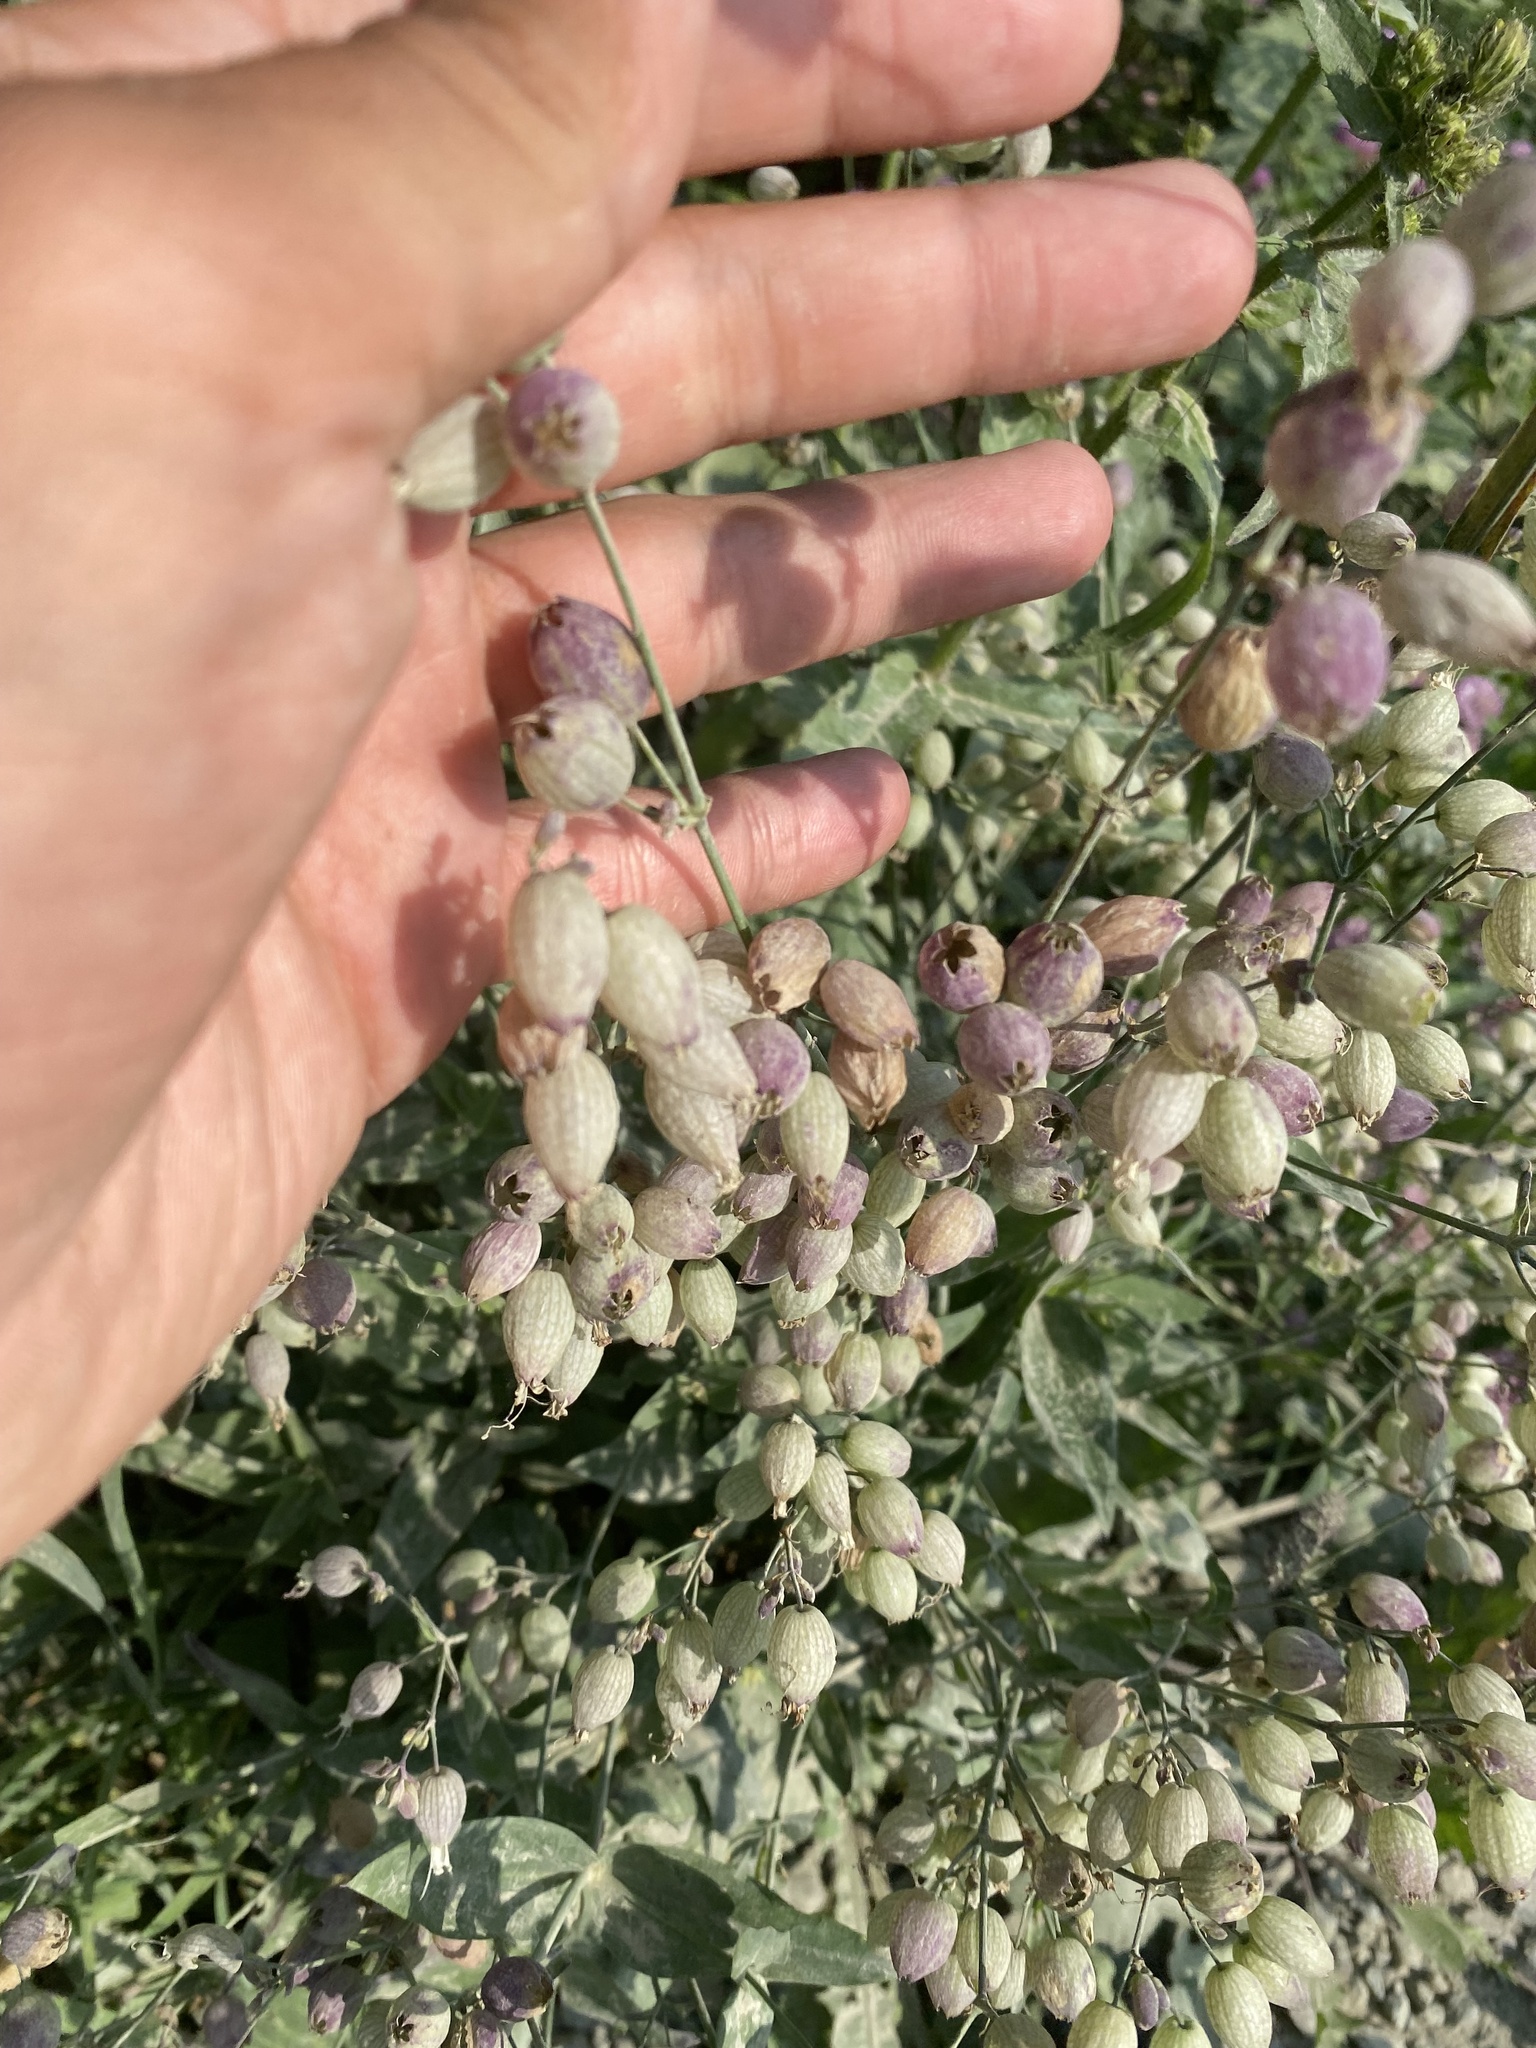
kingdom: Plantae
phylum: Tracheophyta
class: Magnoliopsida
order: Caryophyllales
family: Caryophyllaceae
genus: Silene
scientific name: Silene vulgaris
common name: Bladder campion
